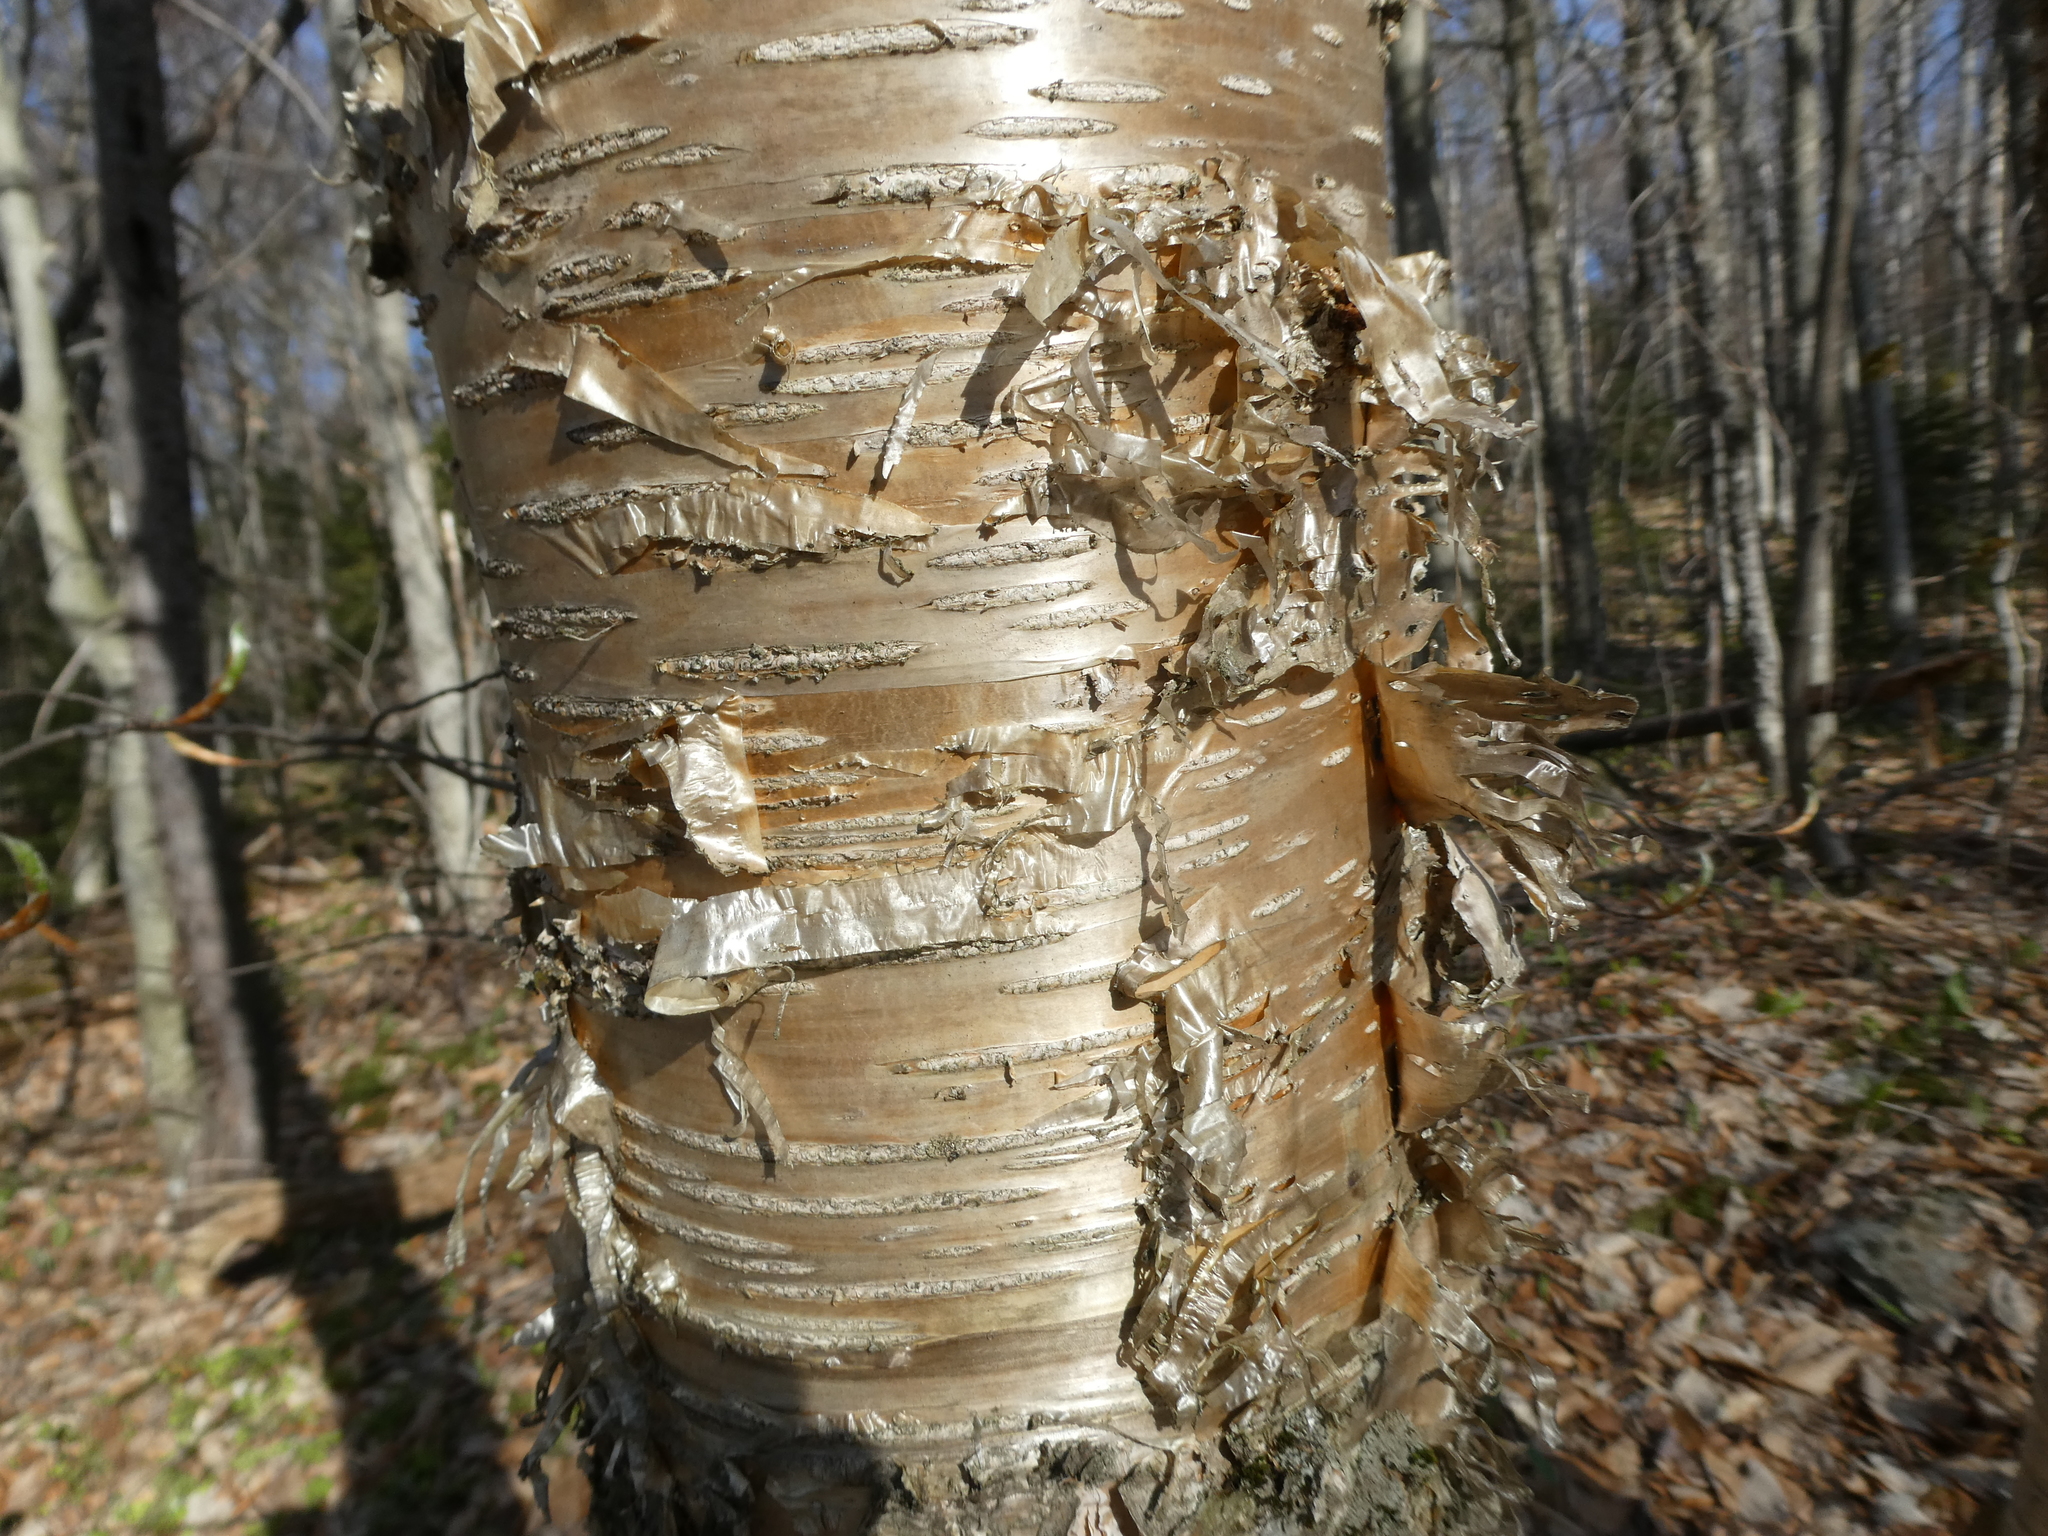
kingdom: Plantae
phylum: Tracheophyta
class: Magnoliopsida
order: Fagales
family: Betulaceae
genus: Betula
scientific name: Betula alleghaniensis
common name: Yellow birch
